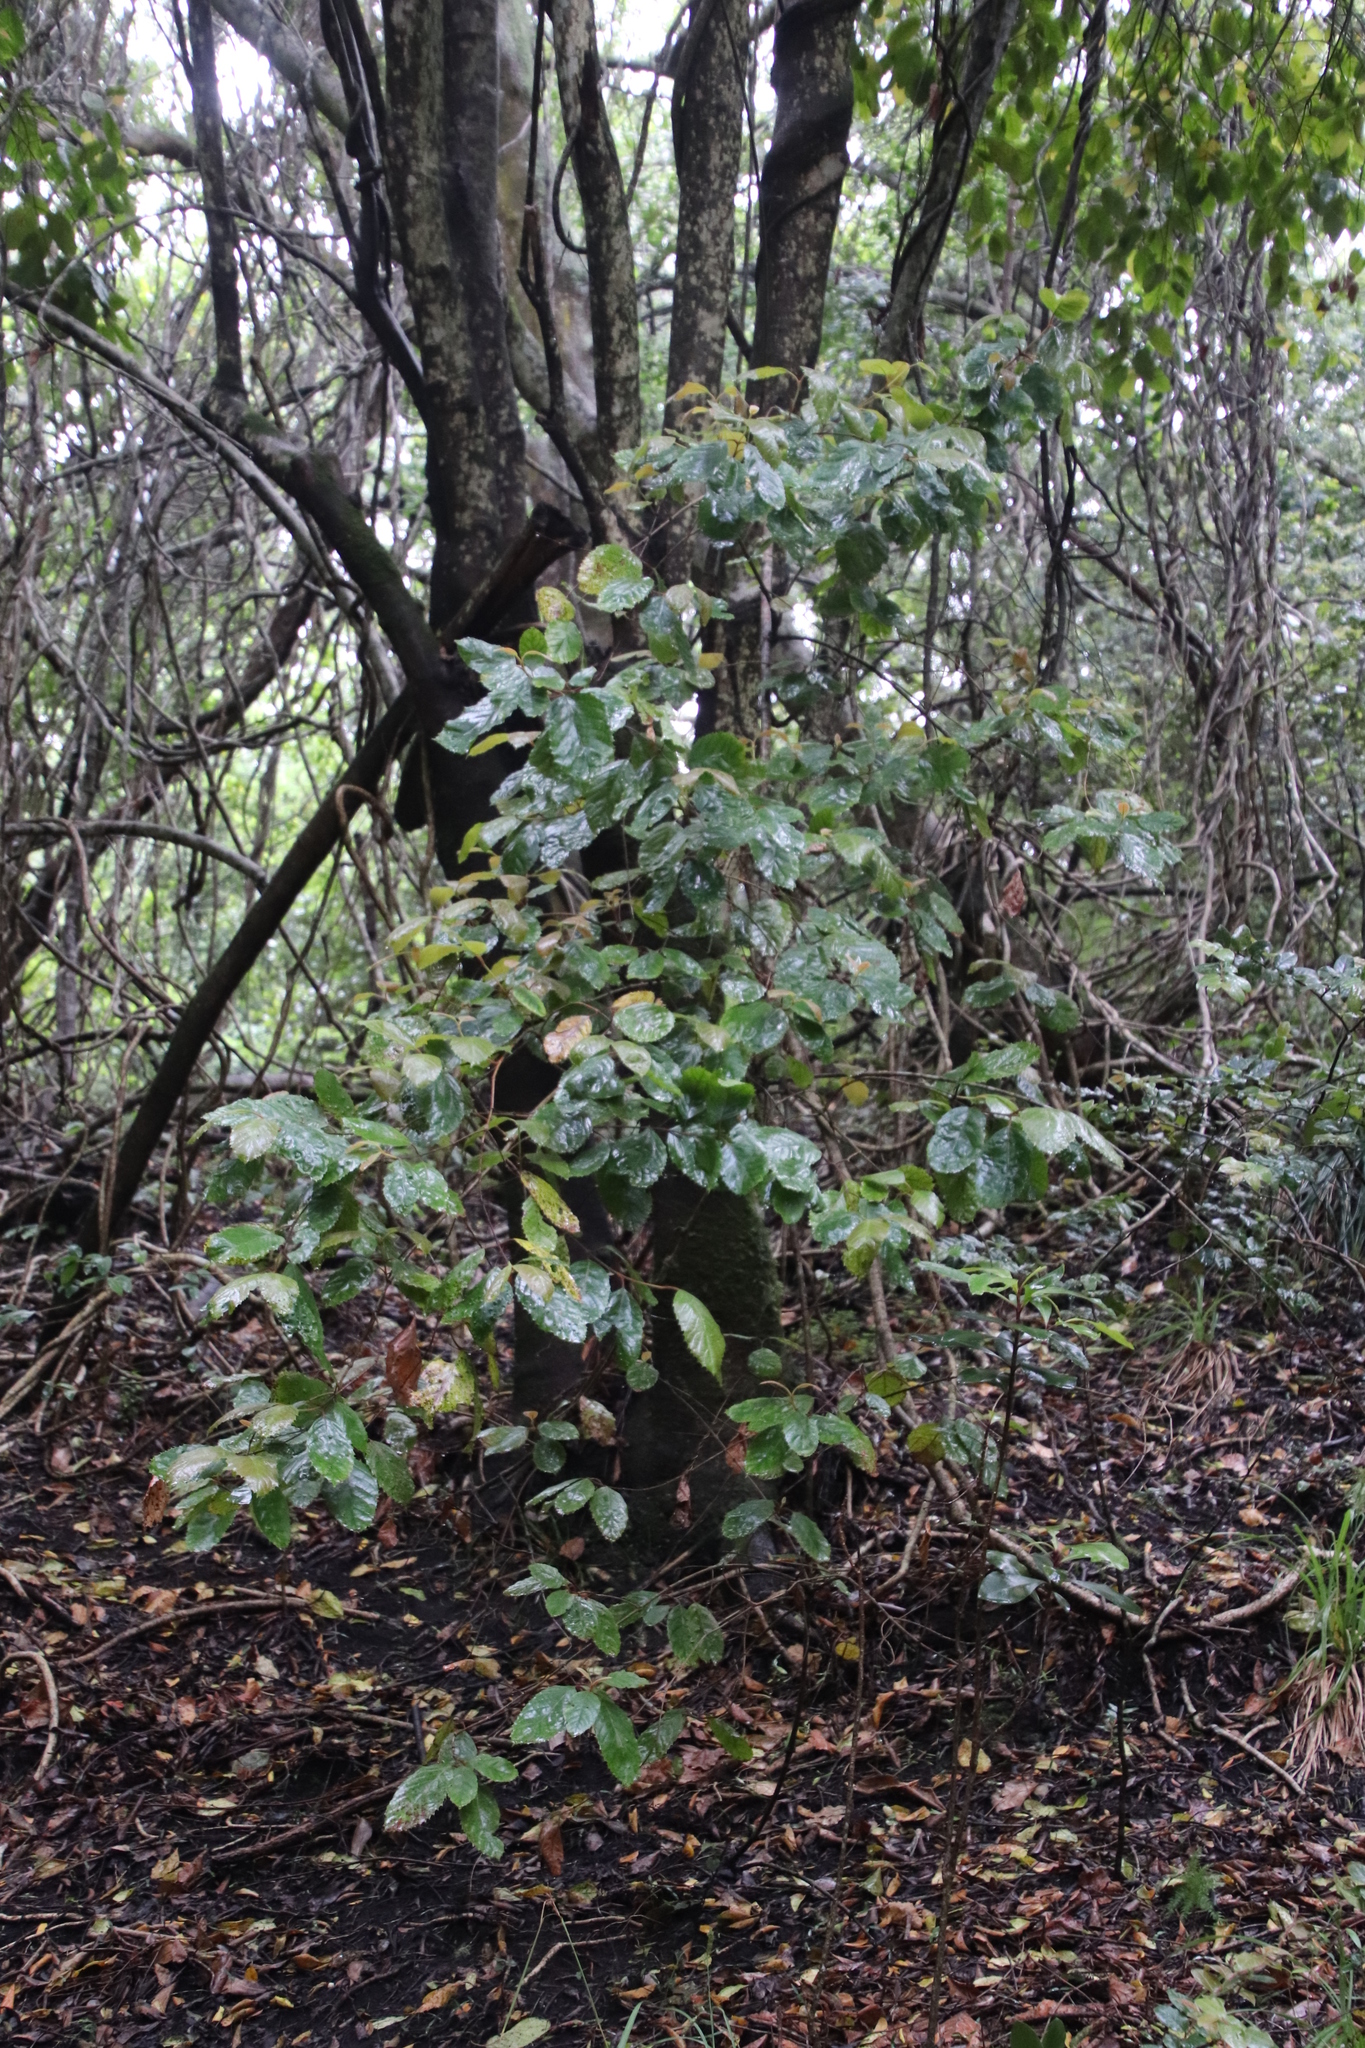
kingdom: Plantae
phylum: Tracheophyta
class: Magnoliopsida
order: Cornales
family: Curtisiaceae
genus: Curtisia
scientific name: Curtisia dentata
